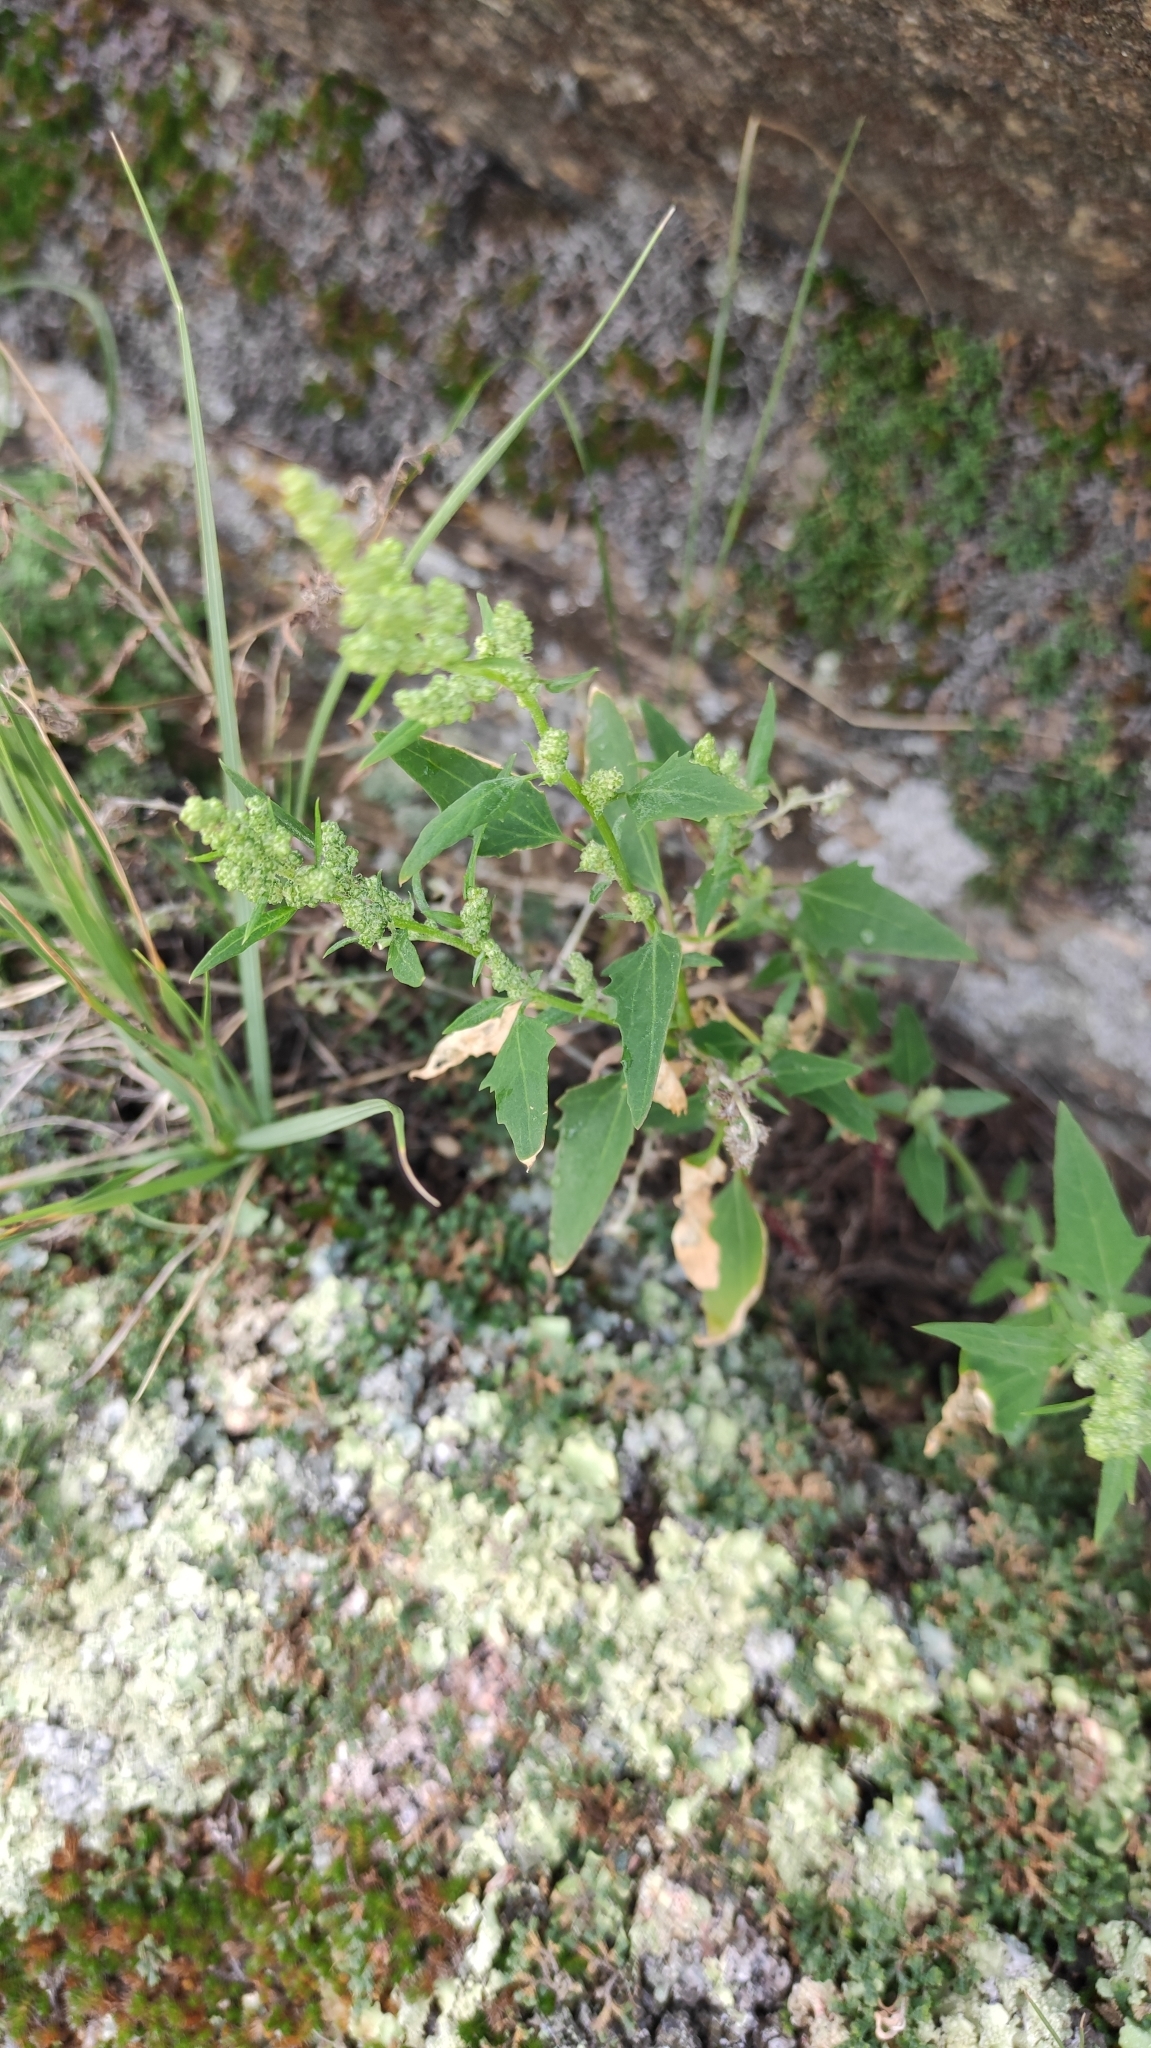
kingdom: Plantae
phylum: Tracheophyta
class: Magnoliopsida
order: Caryophyllales
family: Amaranthaceae
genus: Chenopodium
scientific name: Chenopodium album
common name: Fat-hen
